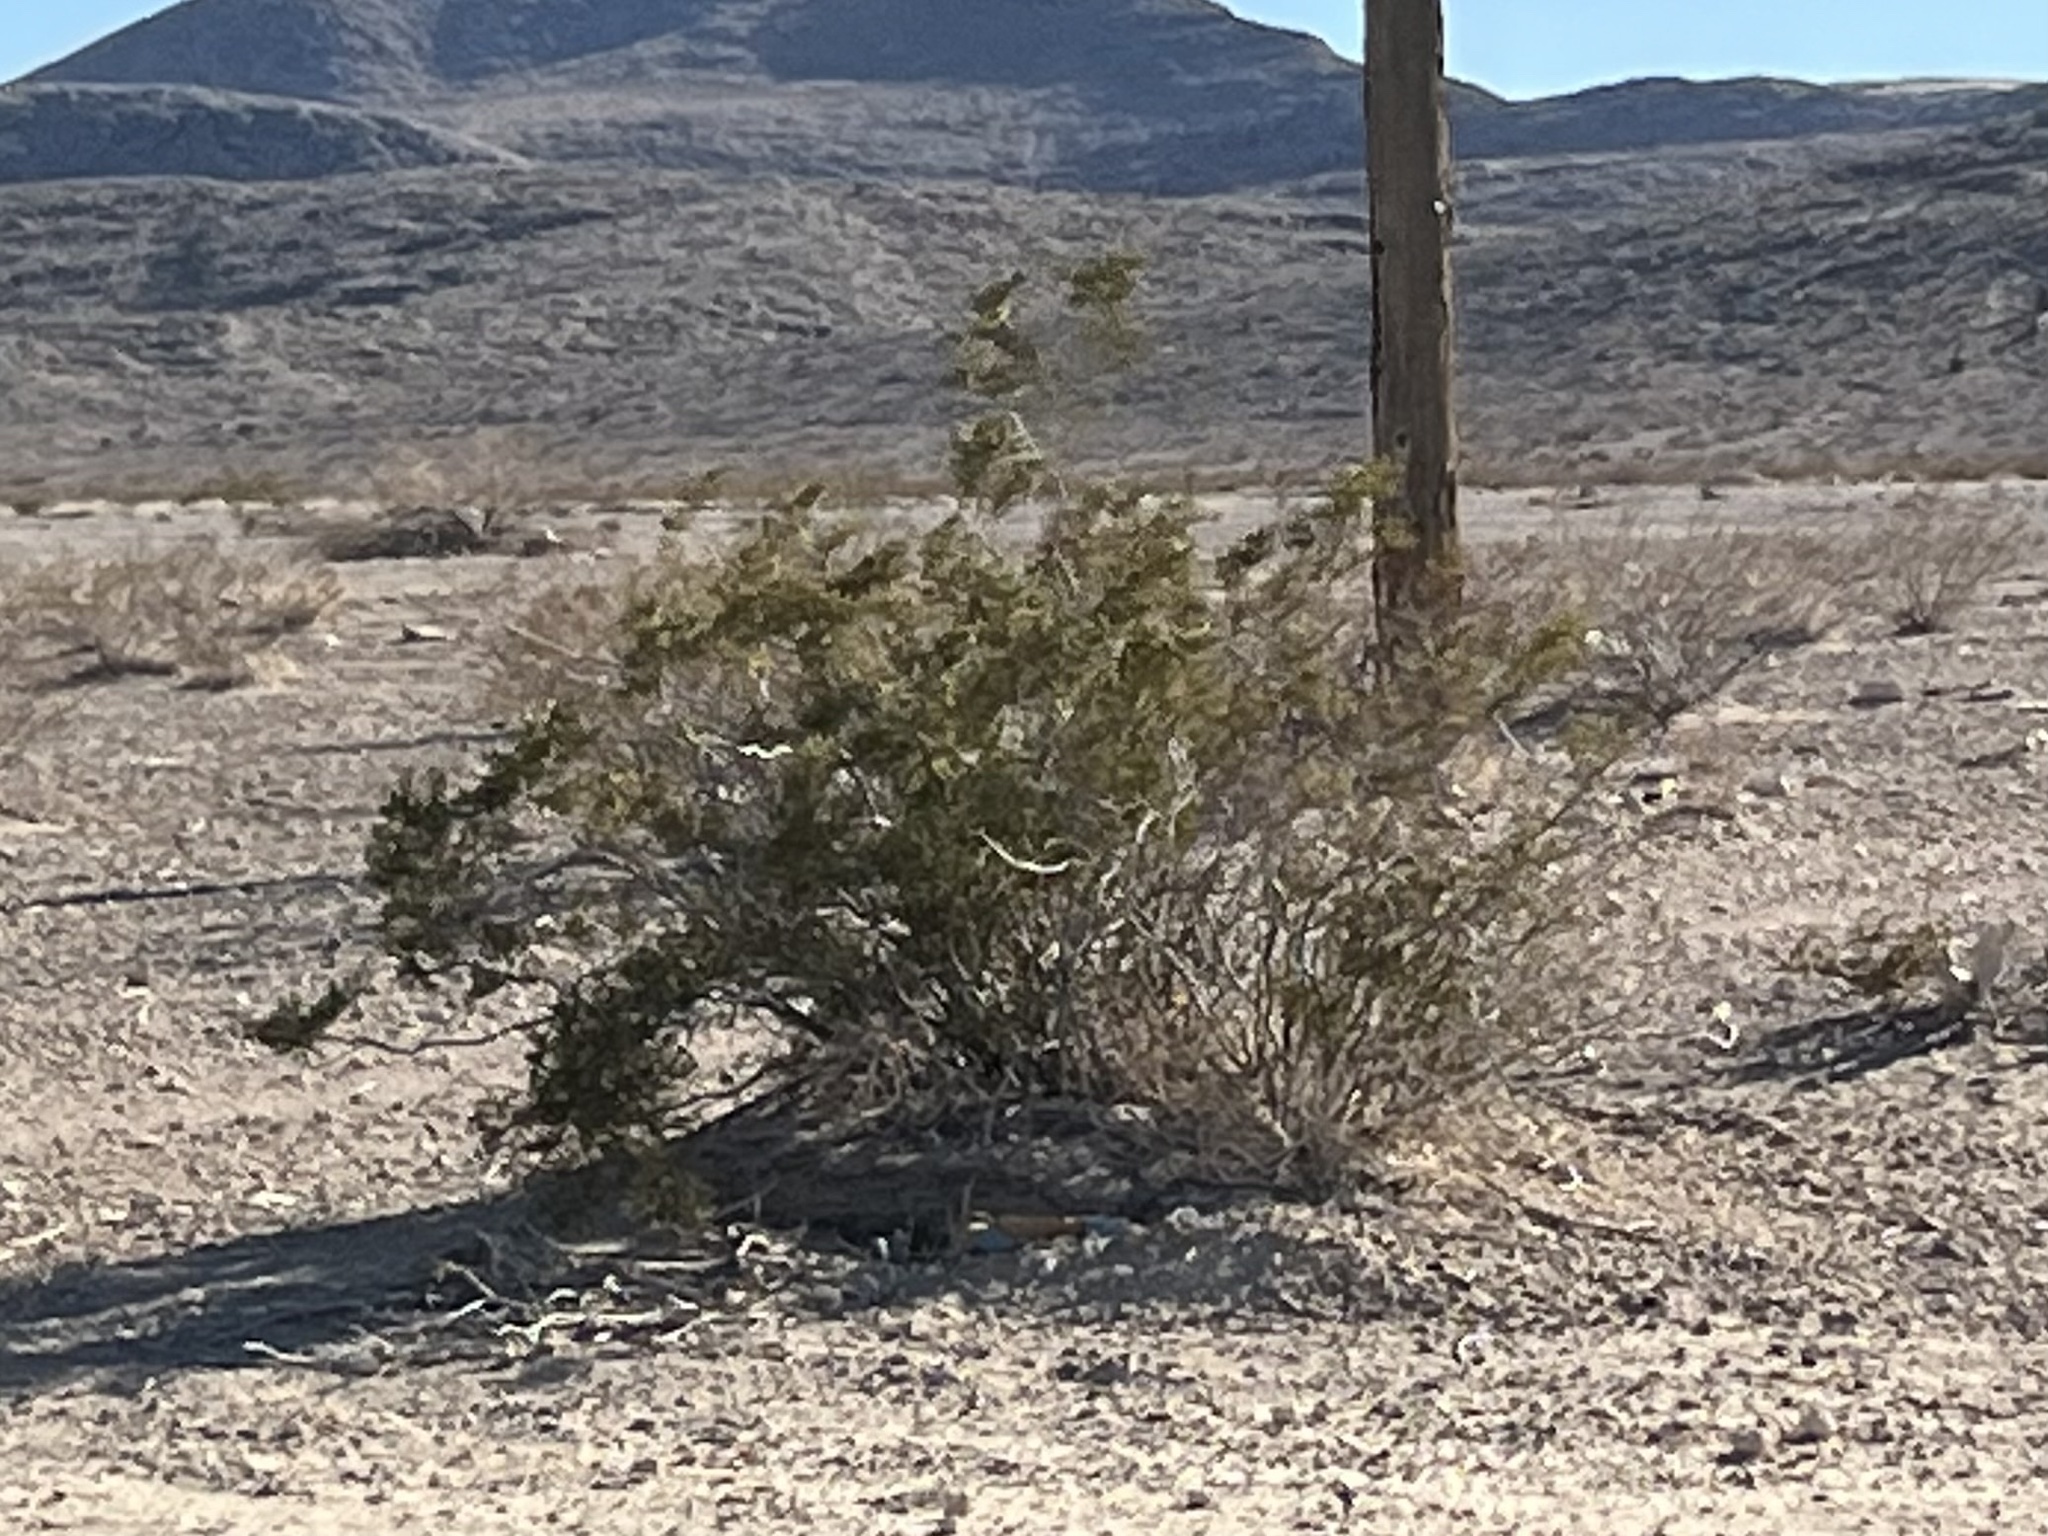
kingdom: Plantae
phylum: Tracheophyta
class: Magnoliopsida
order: Zygophyllales
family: Zygophyllaceae
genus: Larrea
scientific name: Larrea tridentata
